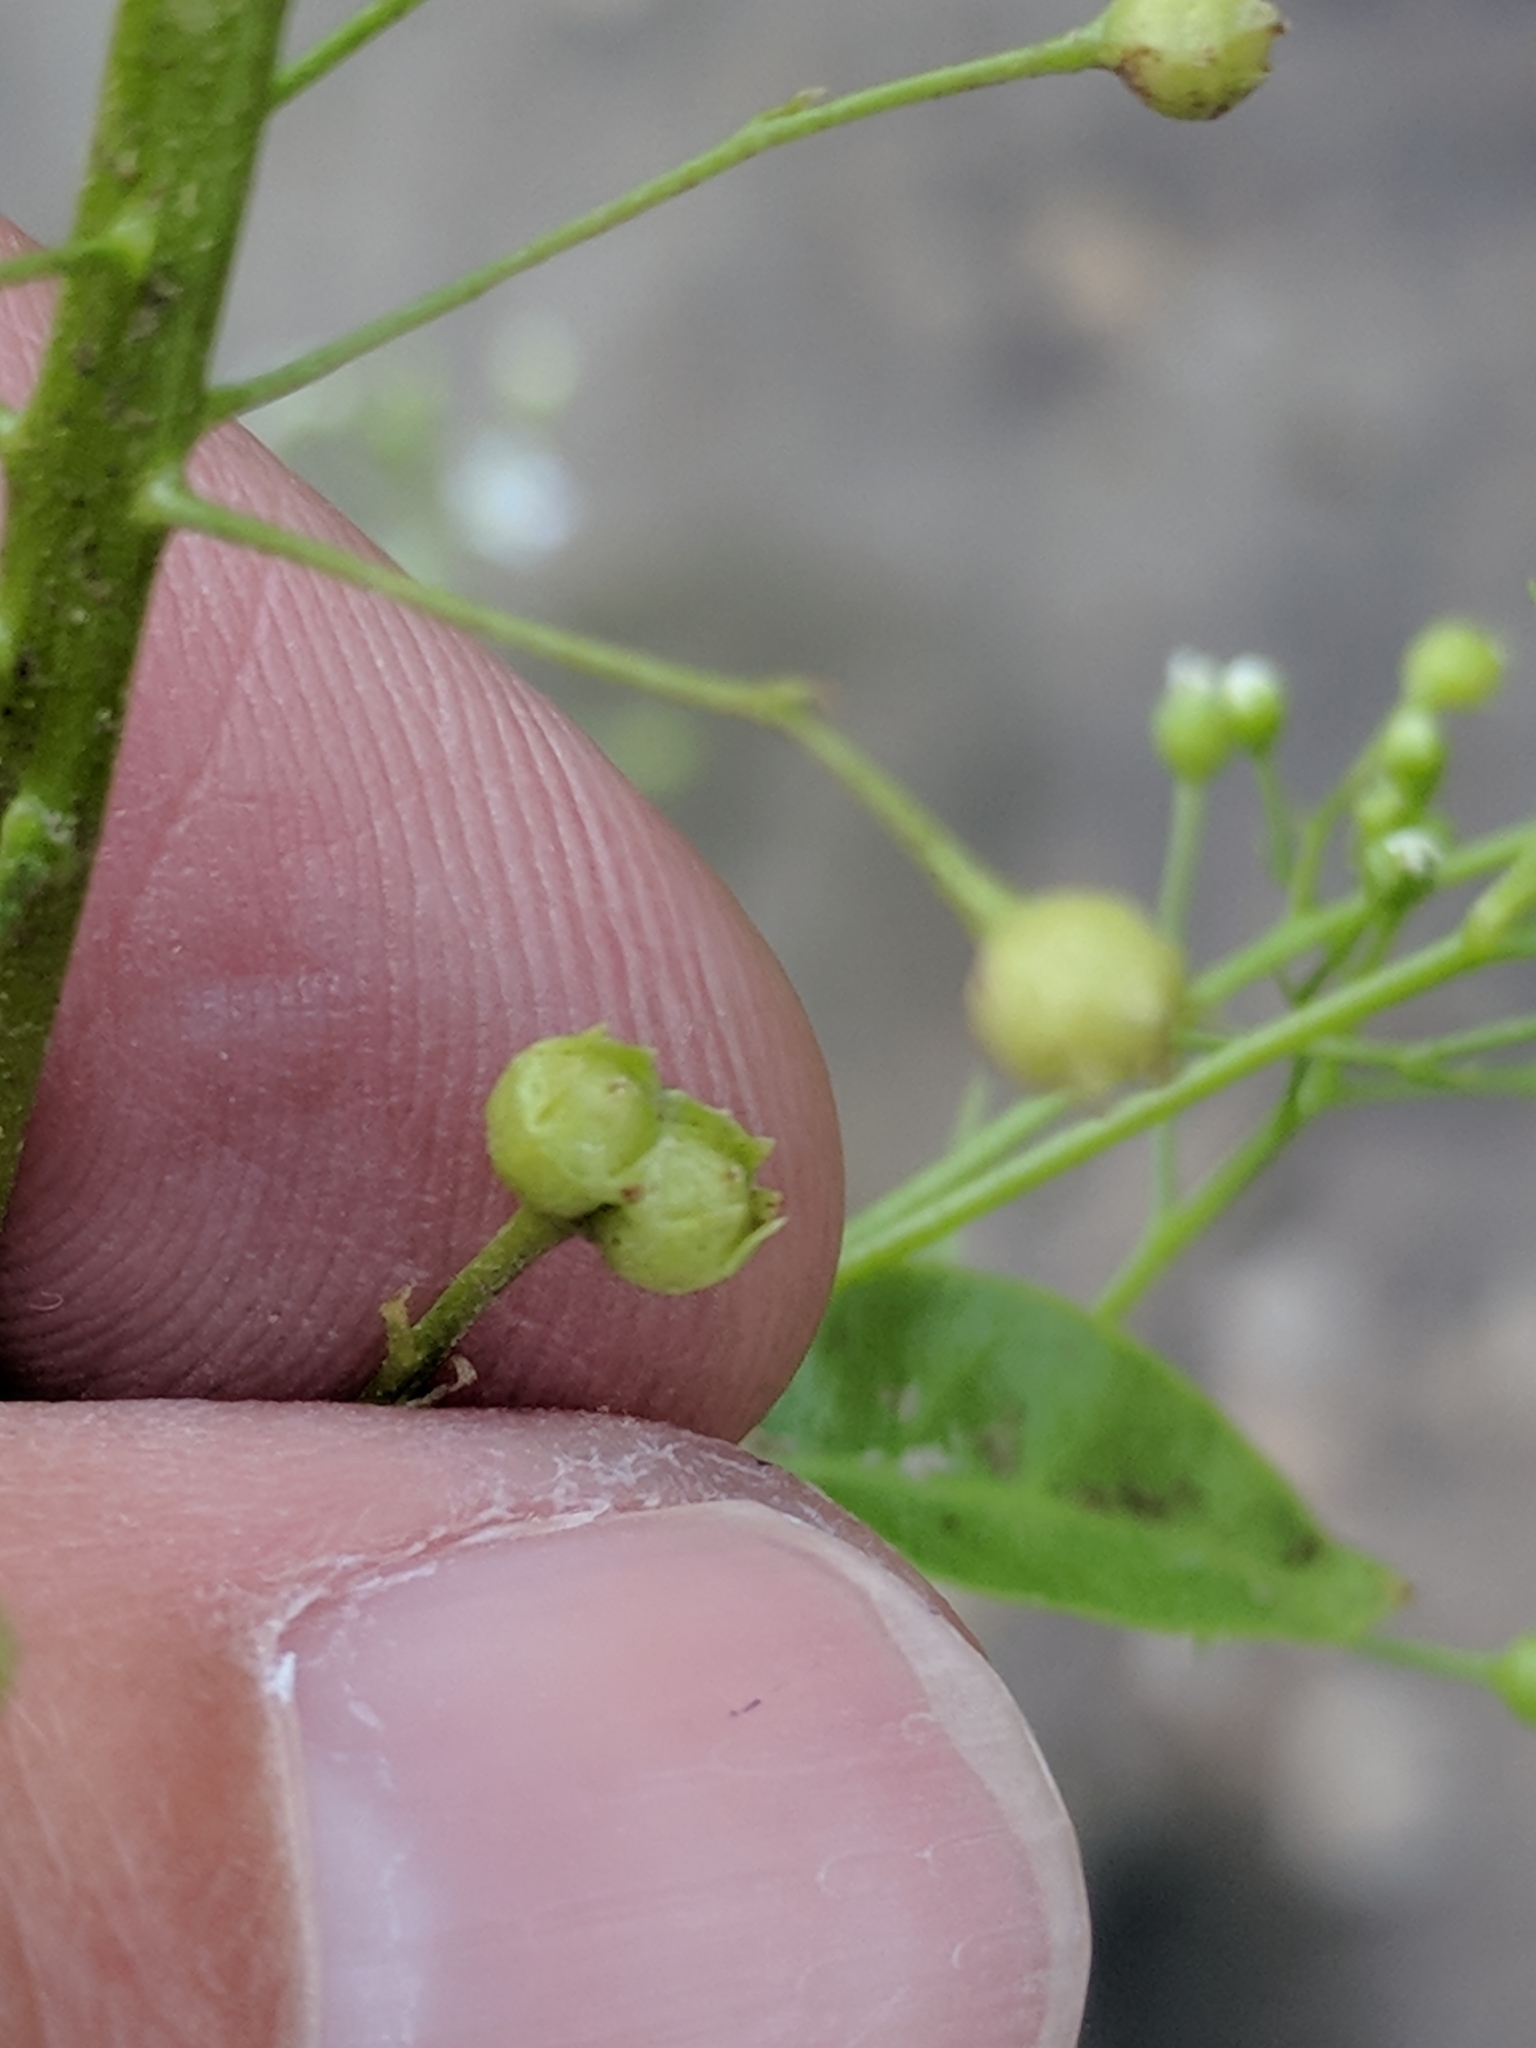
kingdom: Plantae
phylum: Tracheophyta
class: Magnoliopsida
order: Ericales
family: Primulaceae
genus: Samolus
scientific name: Samolus parviflorus
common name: False water pimpernel
